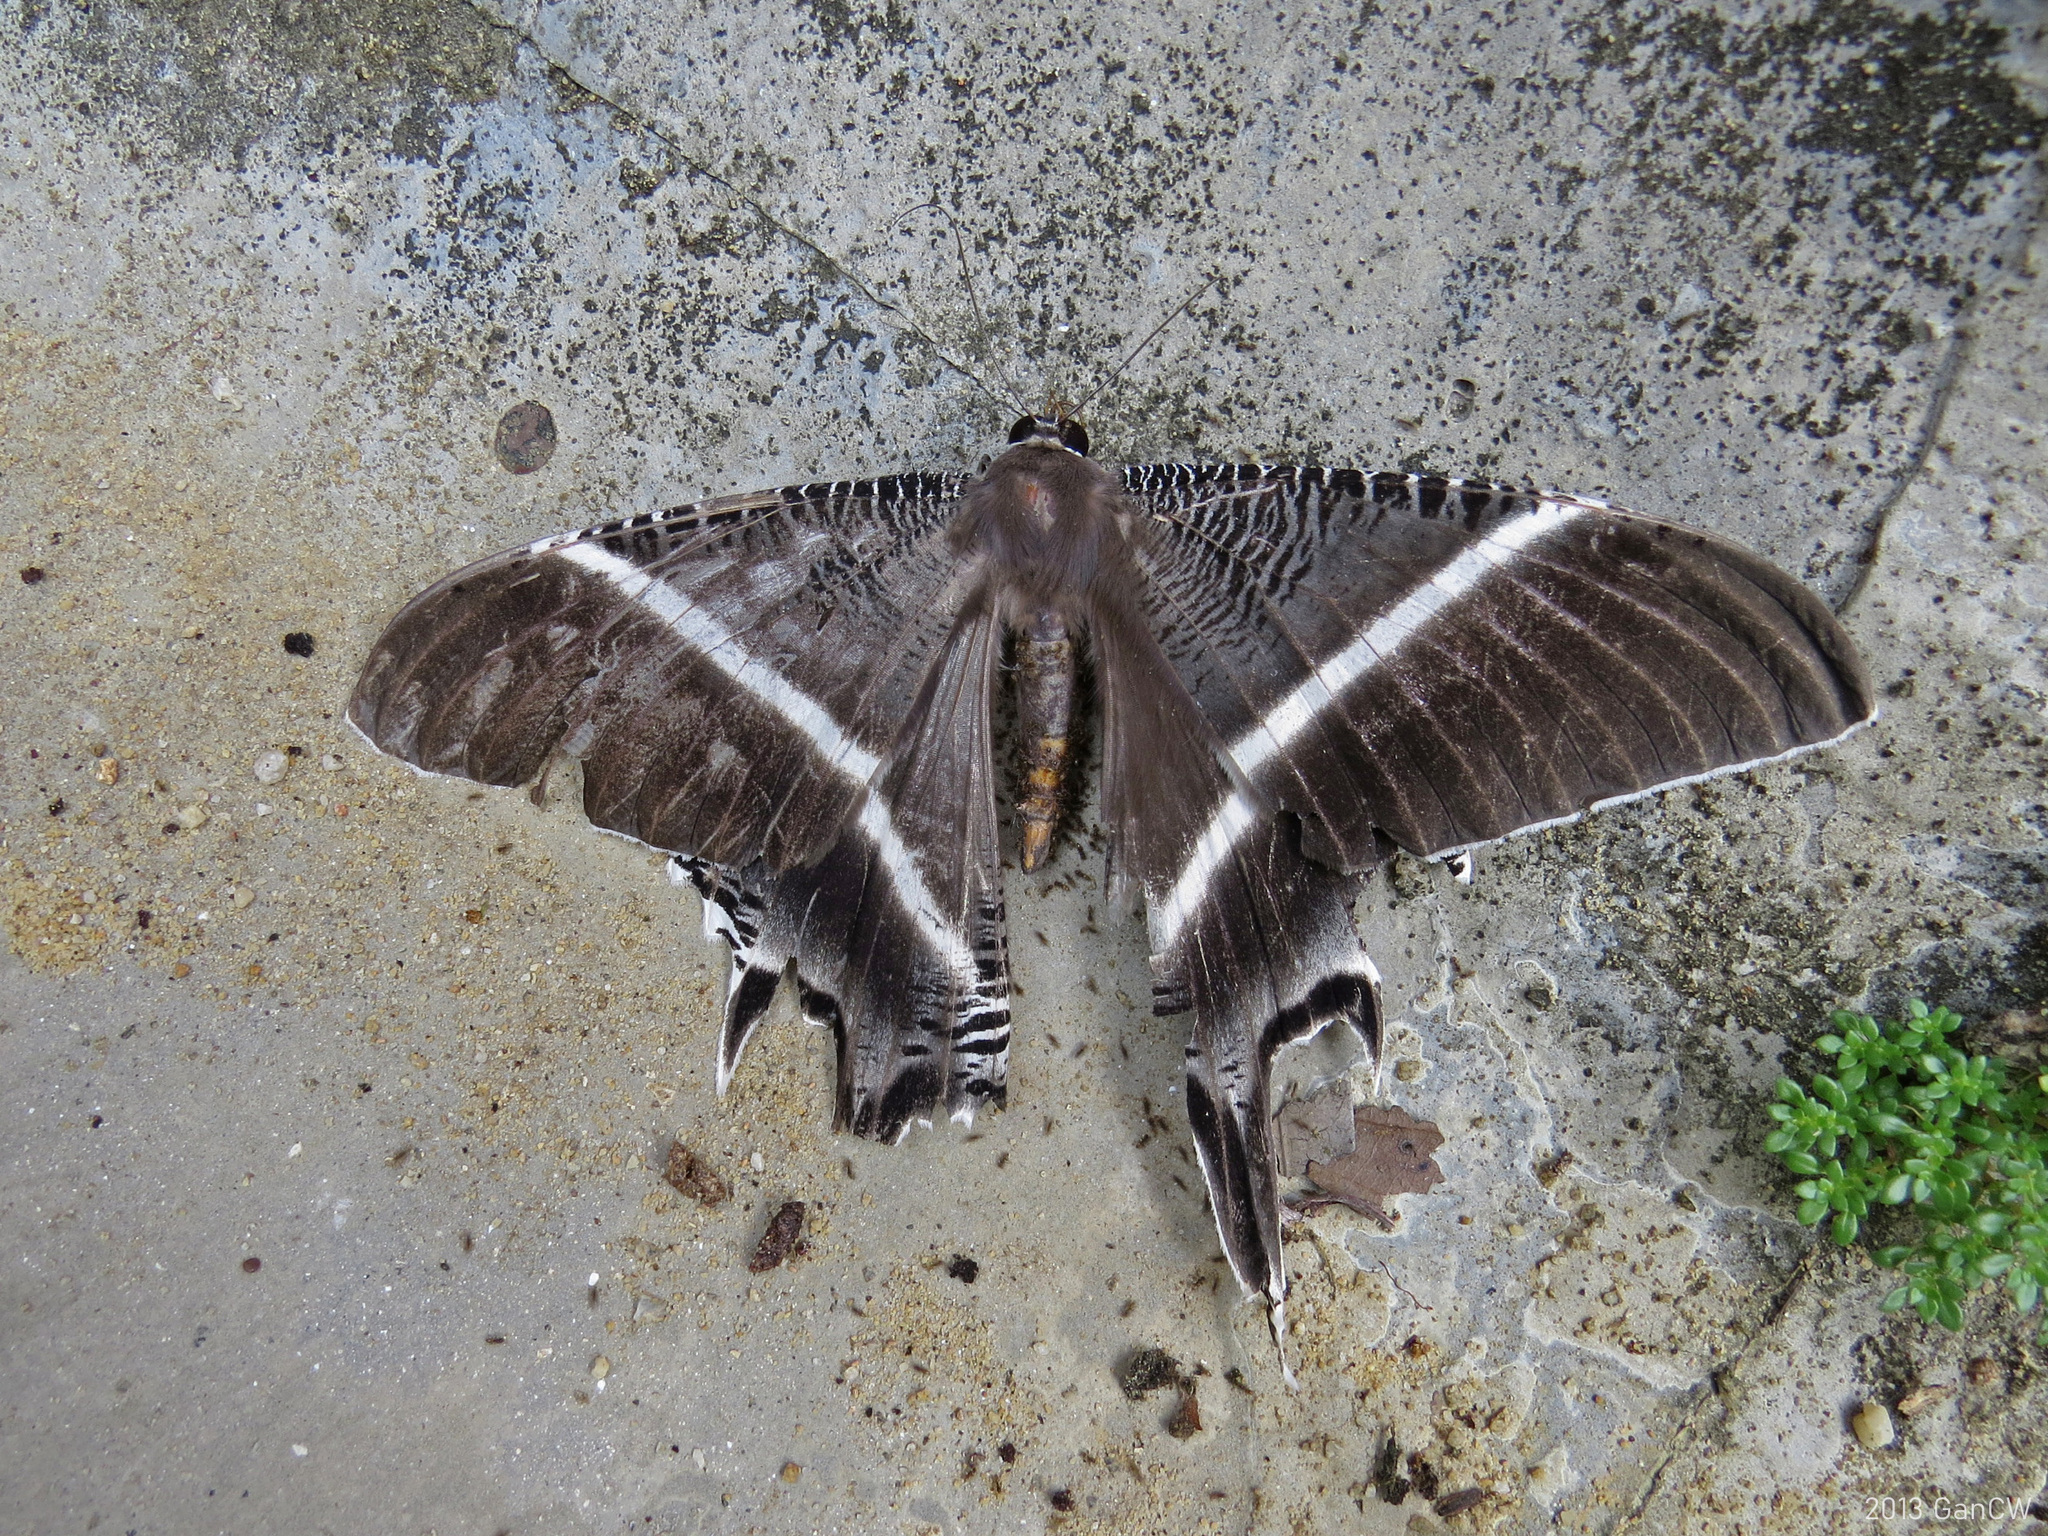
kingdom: Animalia
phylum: Arthropoda
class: Insecta
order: Lepidoptera
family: Uraniidae
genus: Lyssa
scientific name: Lyssa menoetius
